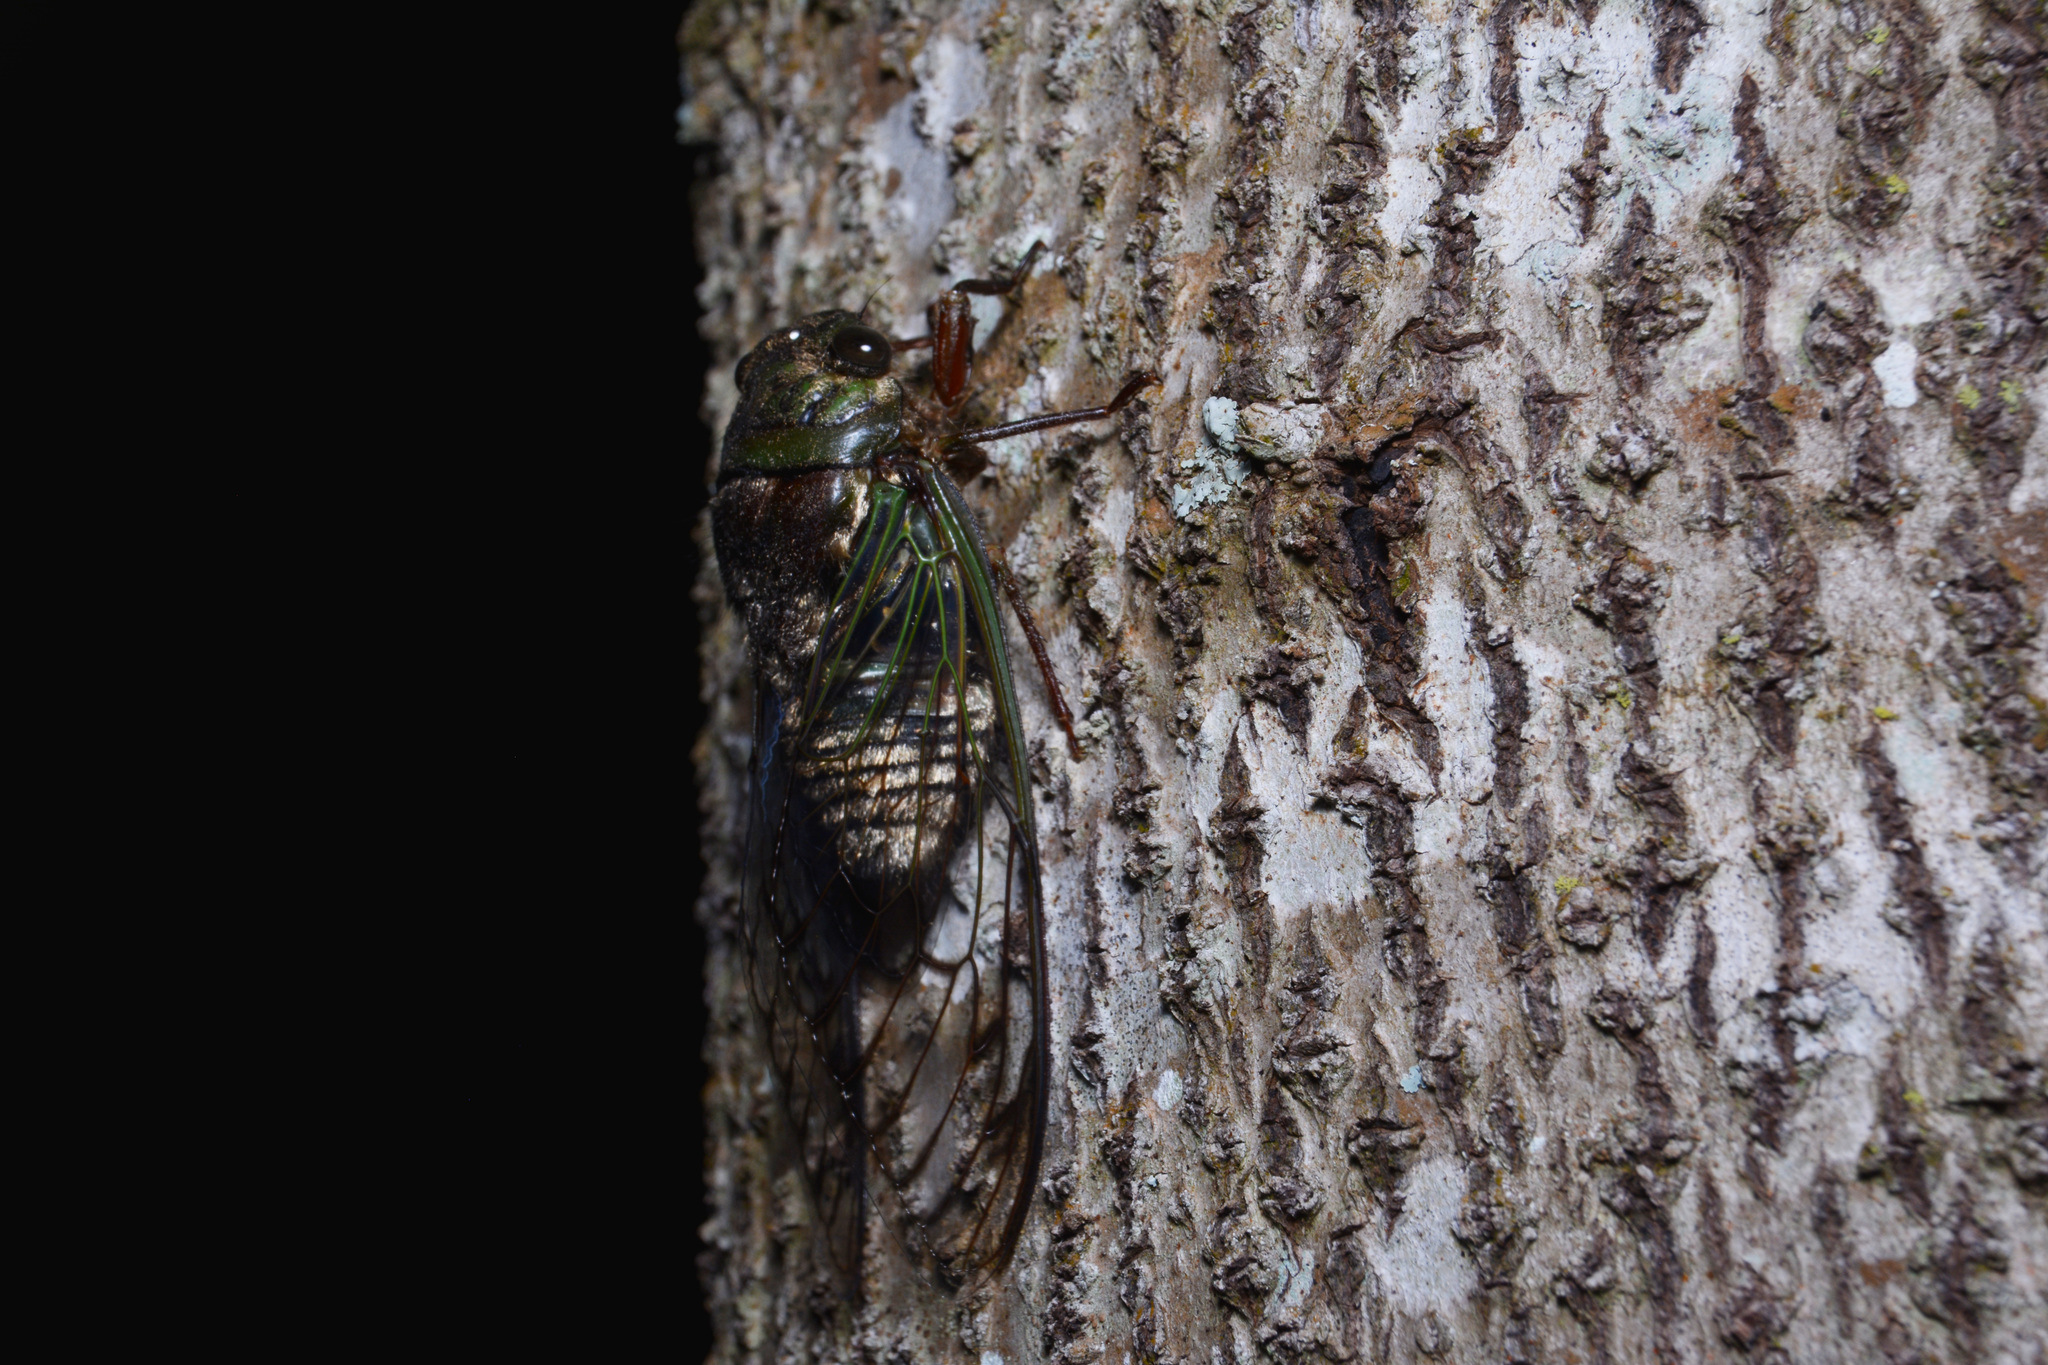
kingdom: Animalia
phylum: Arthropoda
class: Insecta
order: Hemiptera
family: Cicadidae
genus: Fidicina
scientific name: Fidicina torresi
